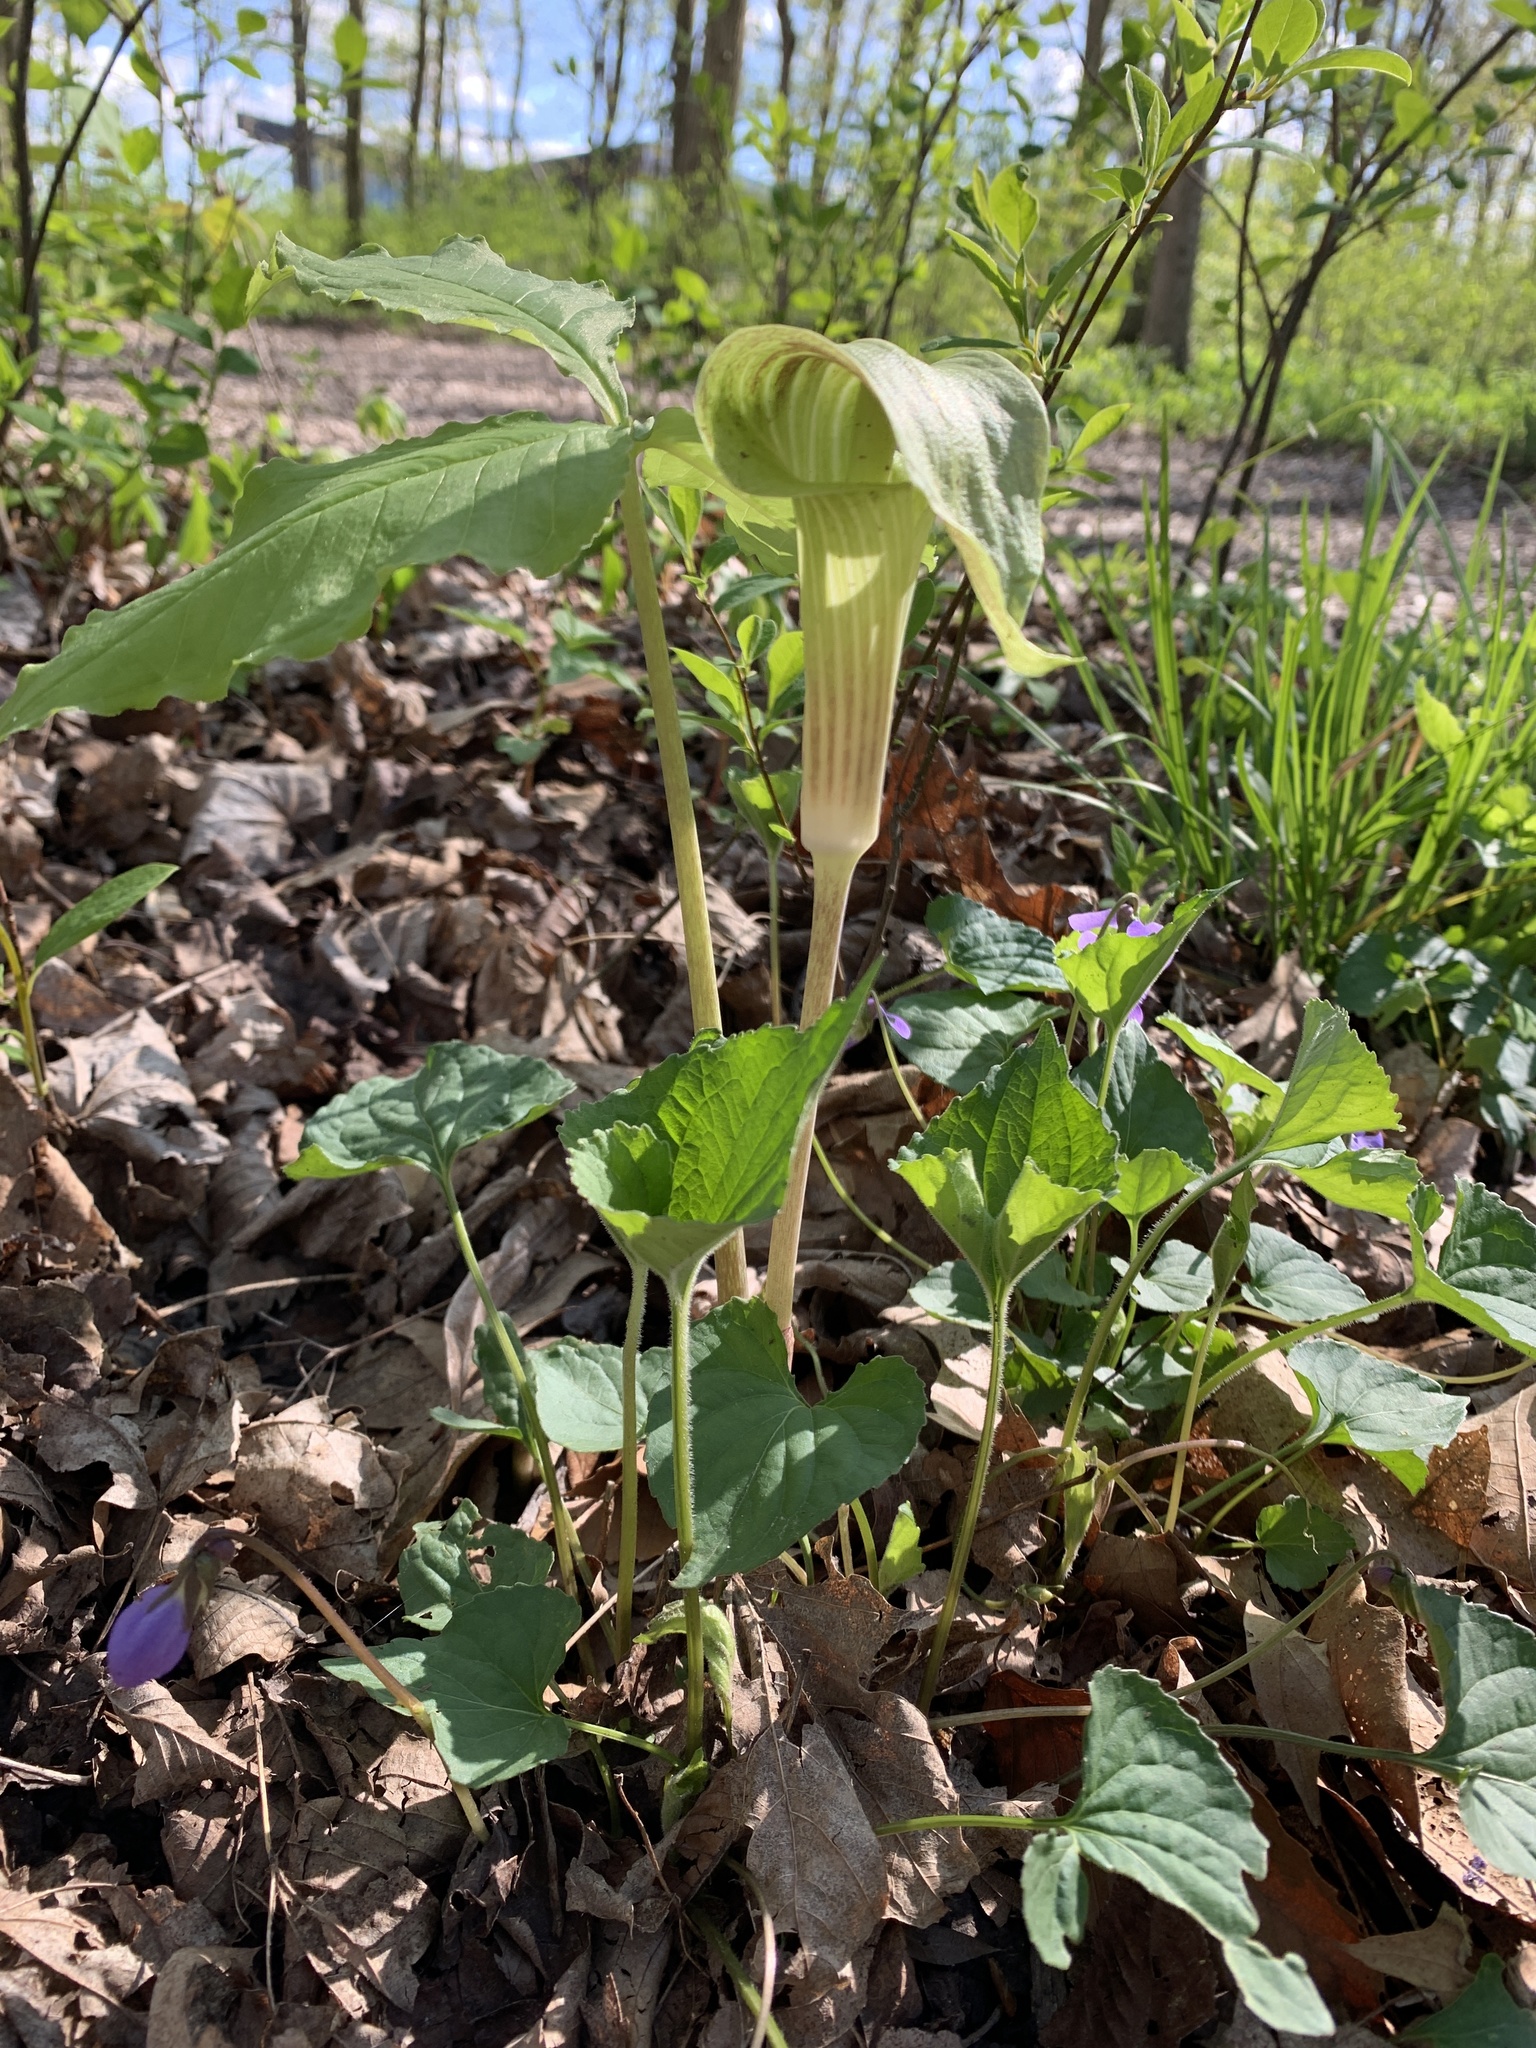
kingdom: Plantae
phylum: Tracheophyta
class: Liliopsida
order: Alismatales
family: Araceae
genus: Arisaema
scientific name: Arisaema triphyllum
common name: Jack-in-the-pulpit
